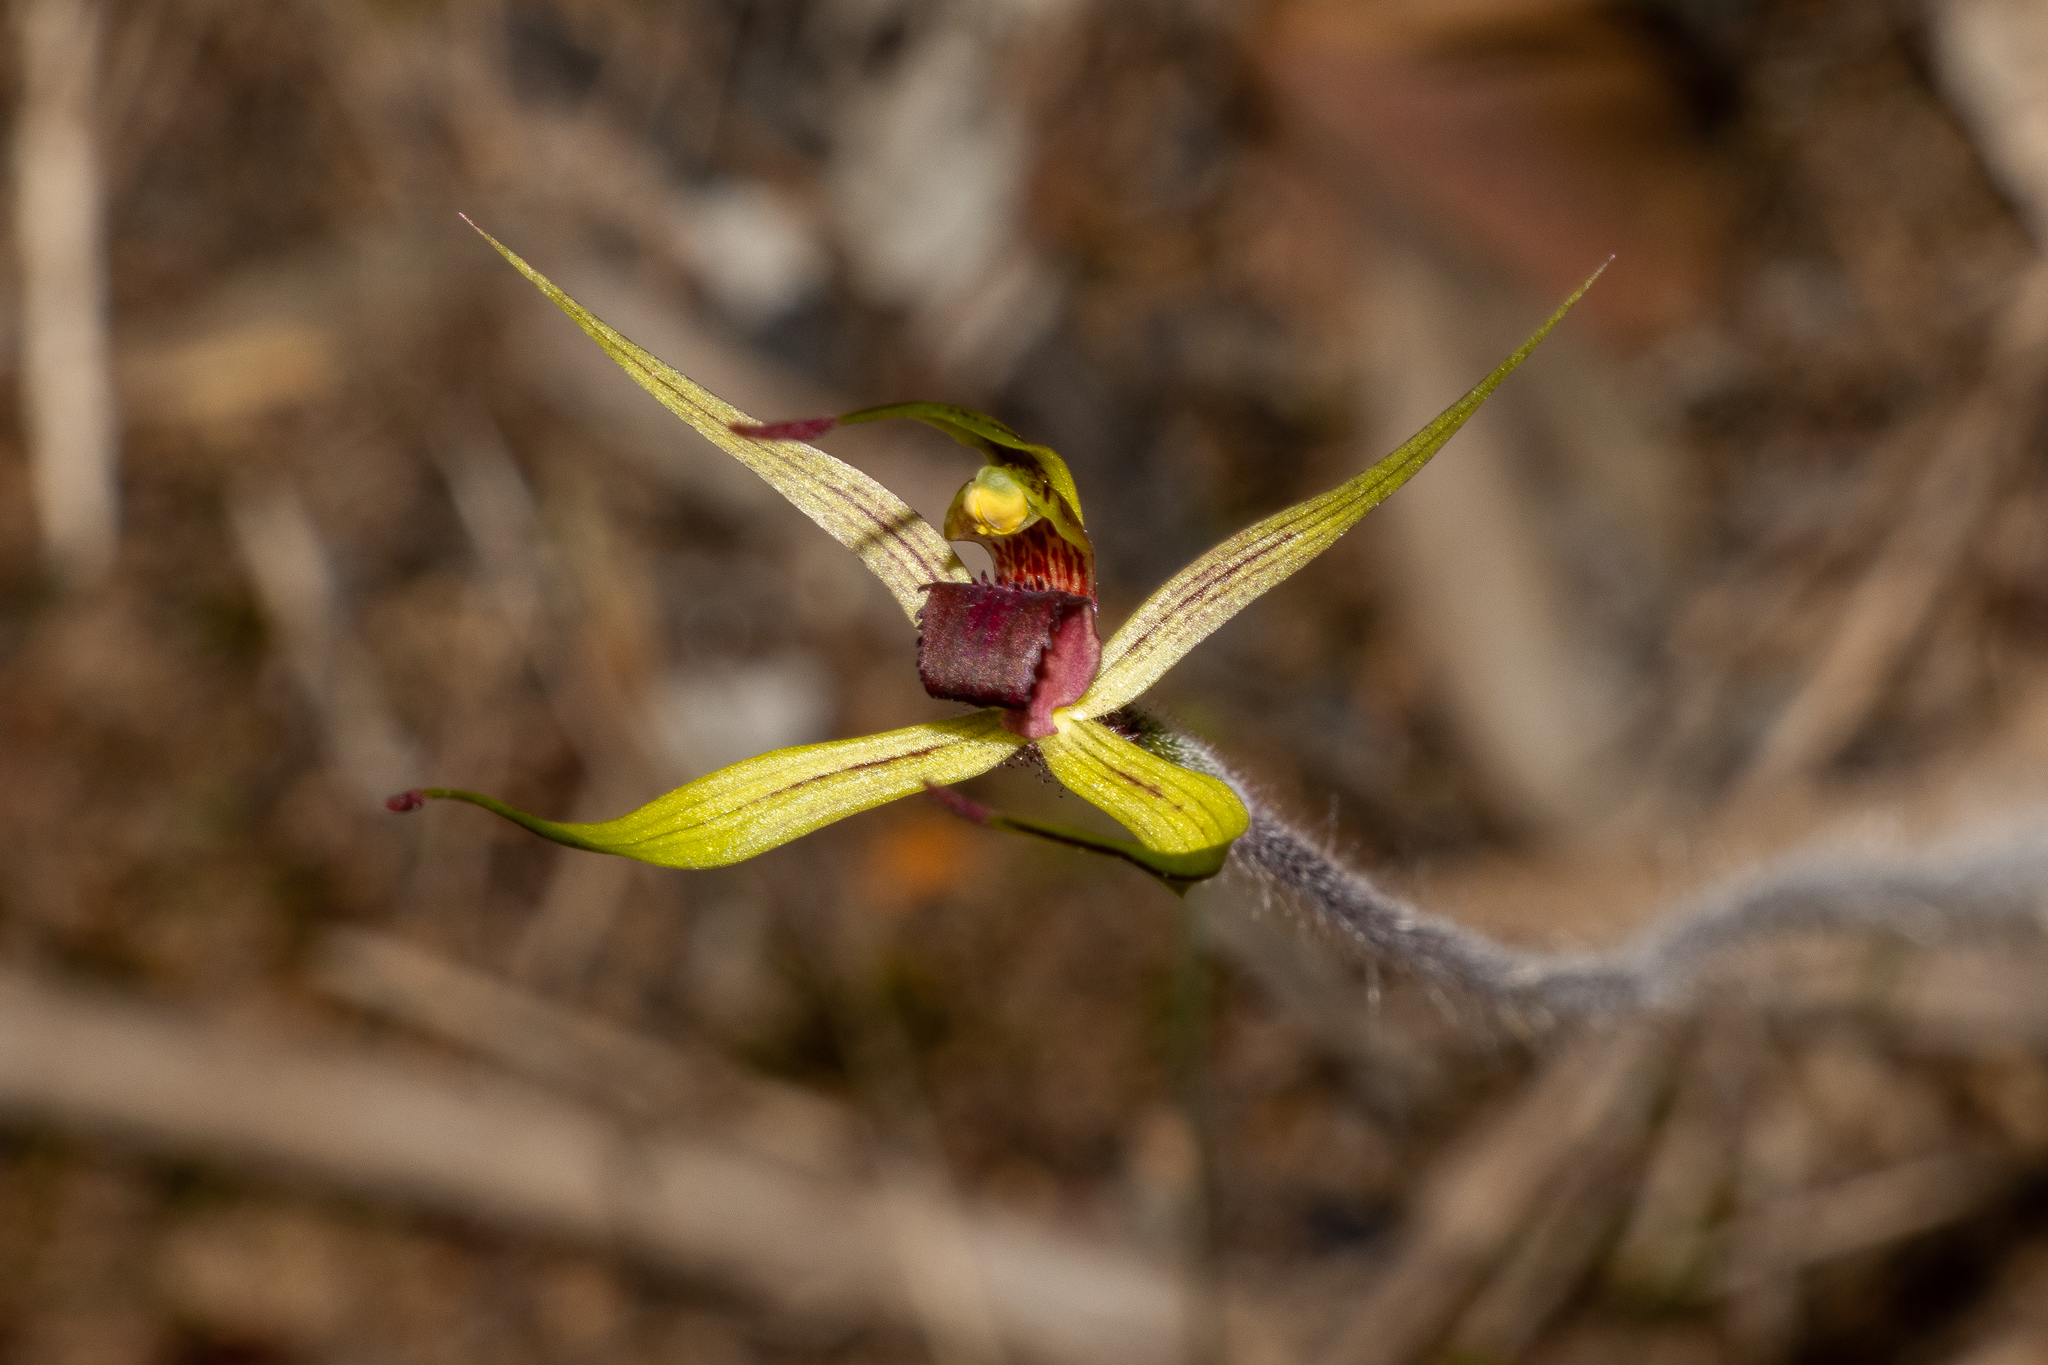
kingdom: Plantae
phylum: Tracheophyta
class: Liliopsida
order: Asparagales
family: Orchidaceae
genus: Caladenia
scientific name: Caladenia leptochila
